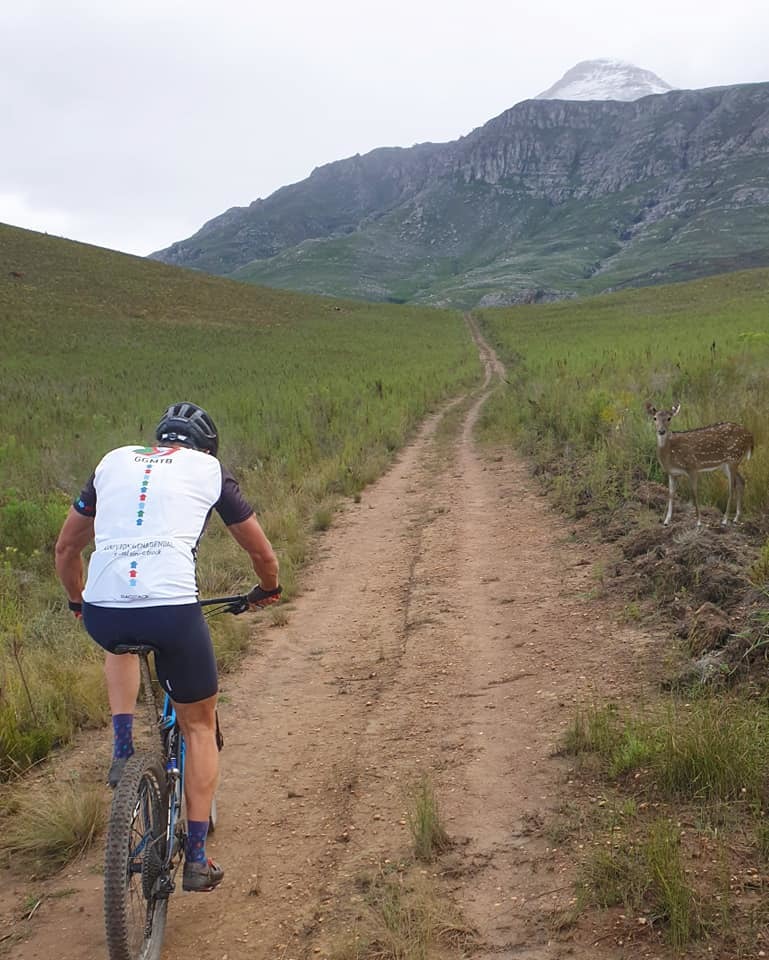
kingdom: Animalia
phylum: Chordata
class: Mammalia
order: Artiodactyla
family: Cervidae
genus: Dama
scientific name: Dama dama
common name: Fallow deer
